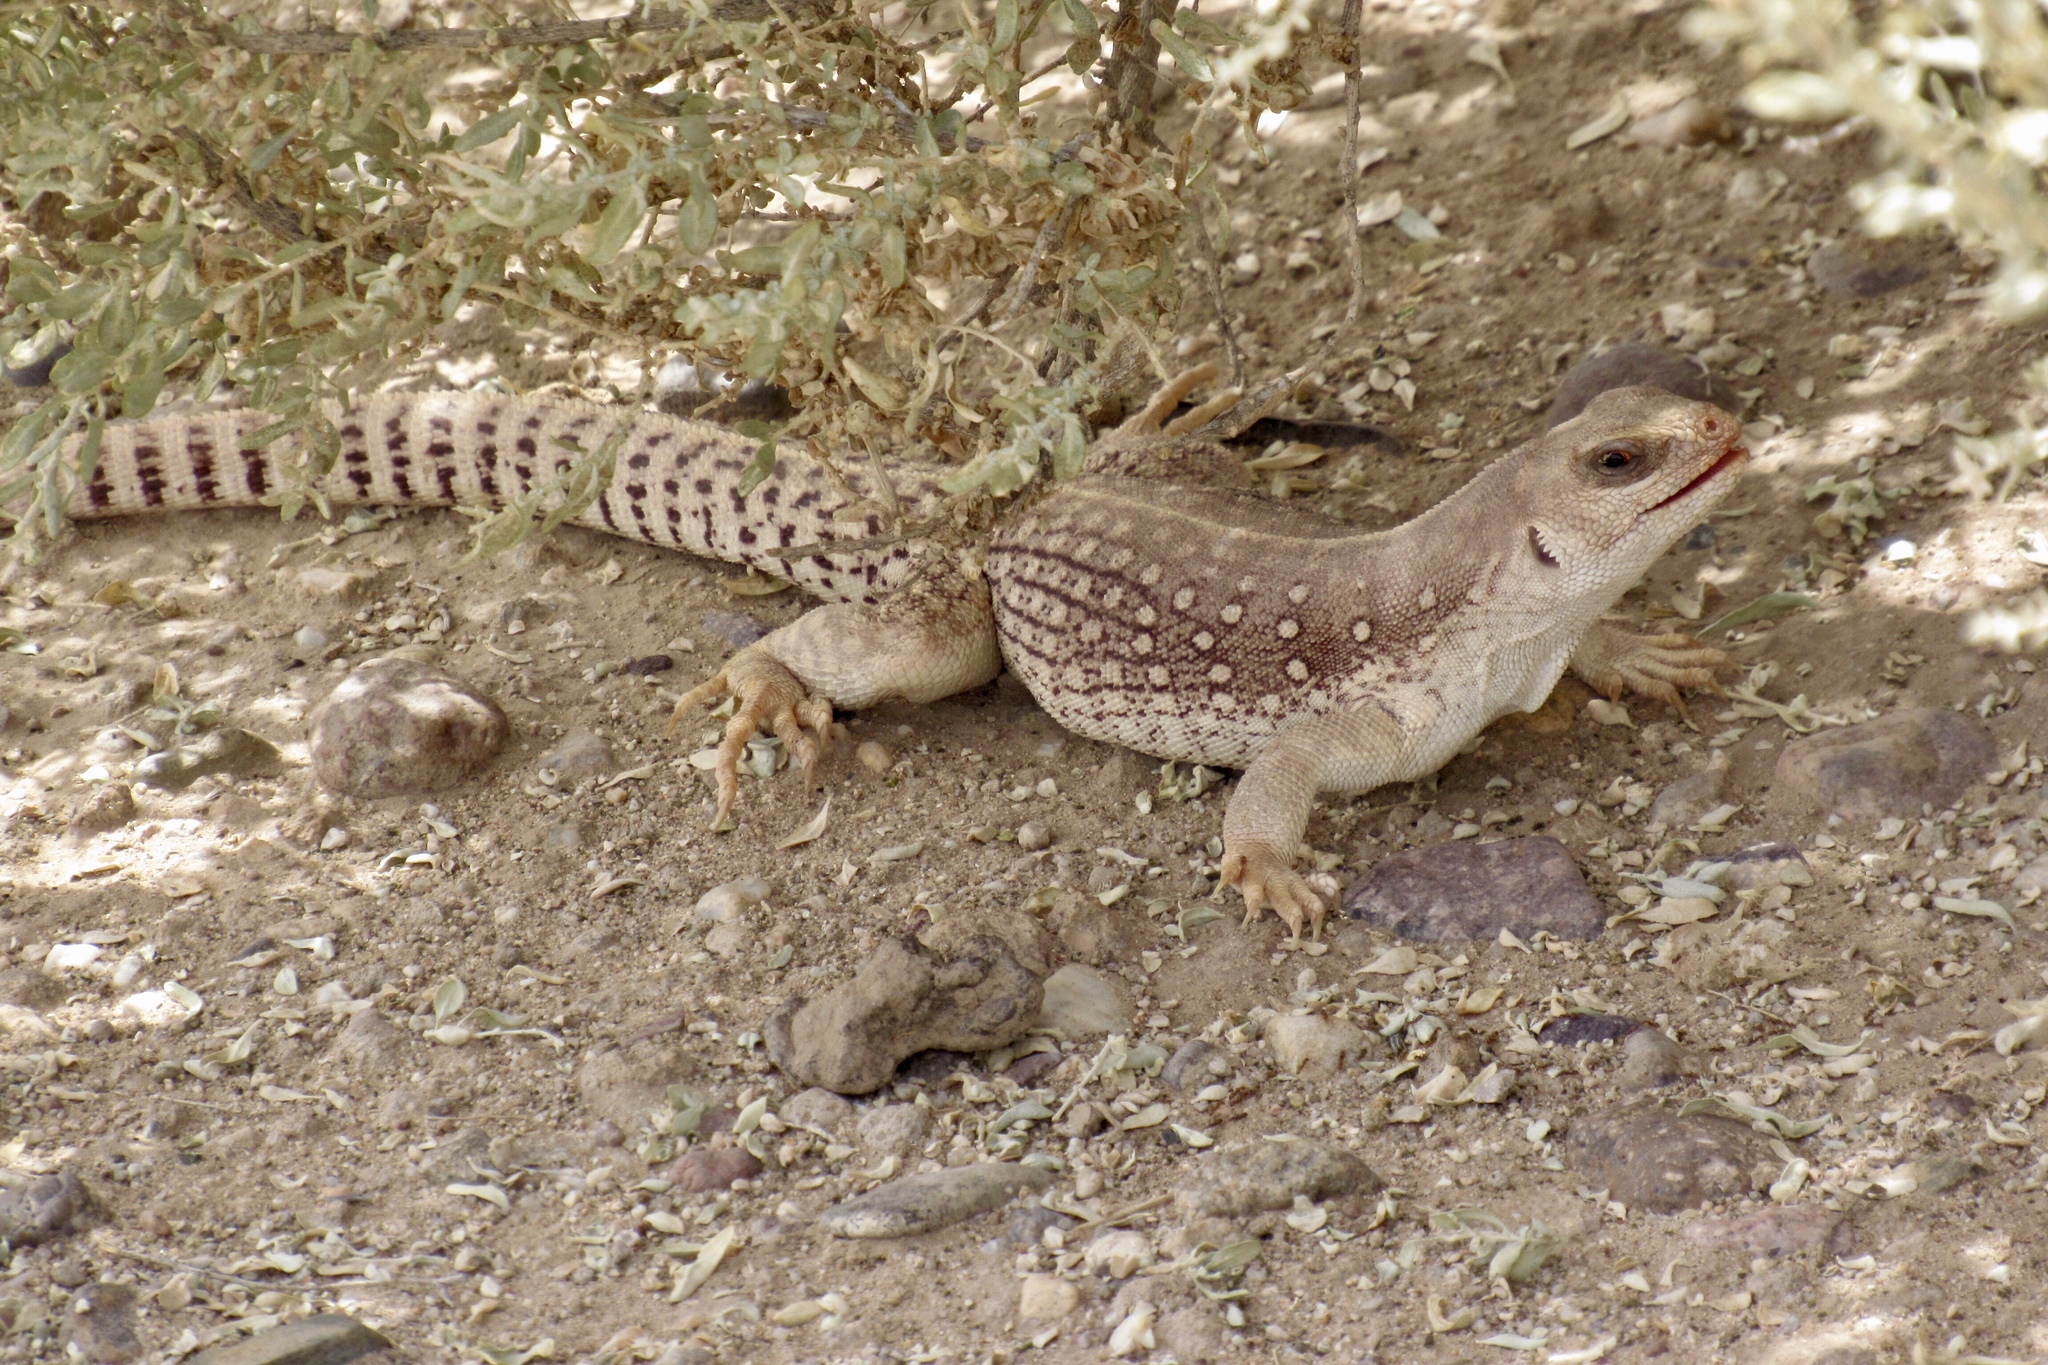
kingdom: Animalia
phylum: Chordata
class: Squamata
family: Iguanidae
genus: Dipsosaurus
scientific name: Dipsosaurus dorsalis
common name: Desert iguana
